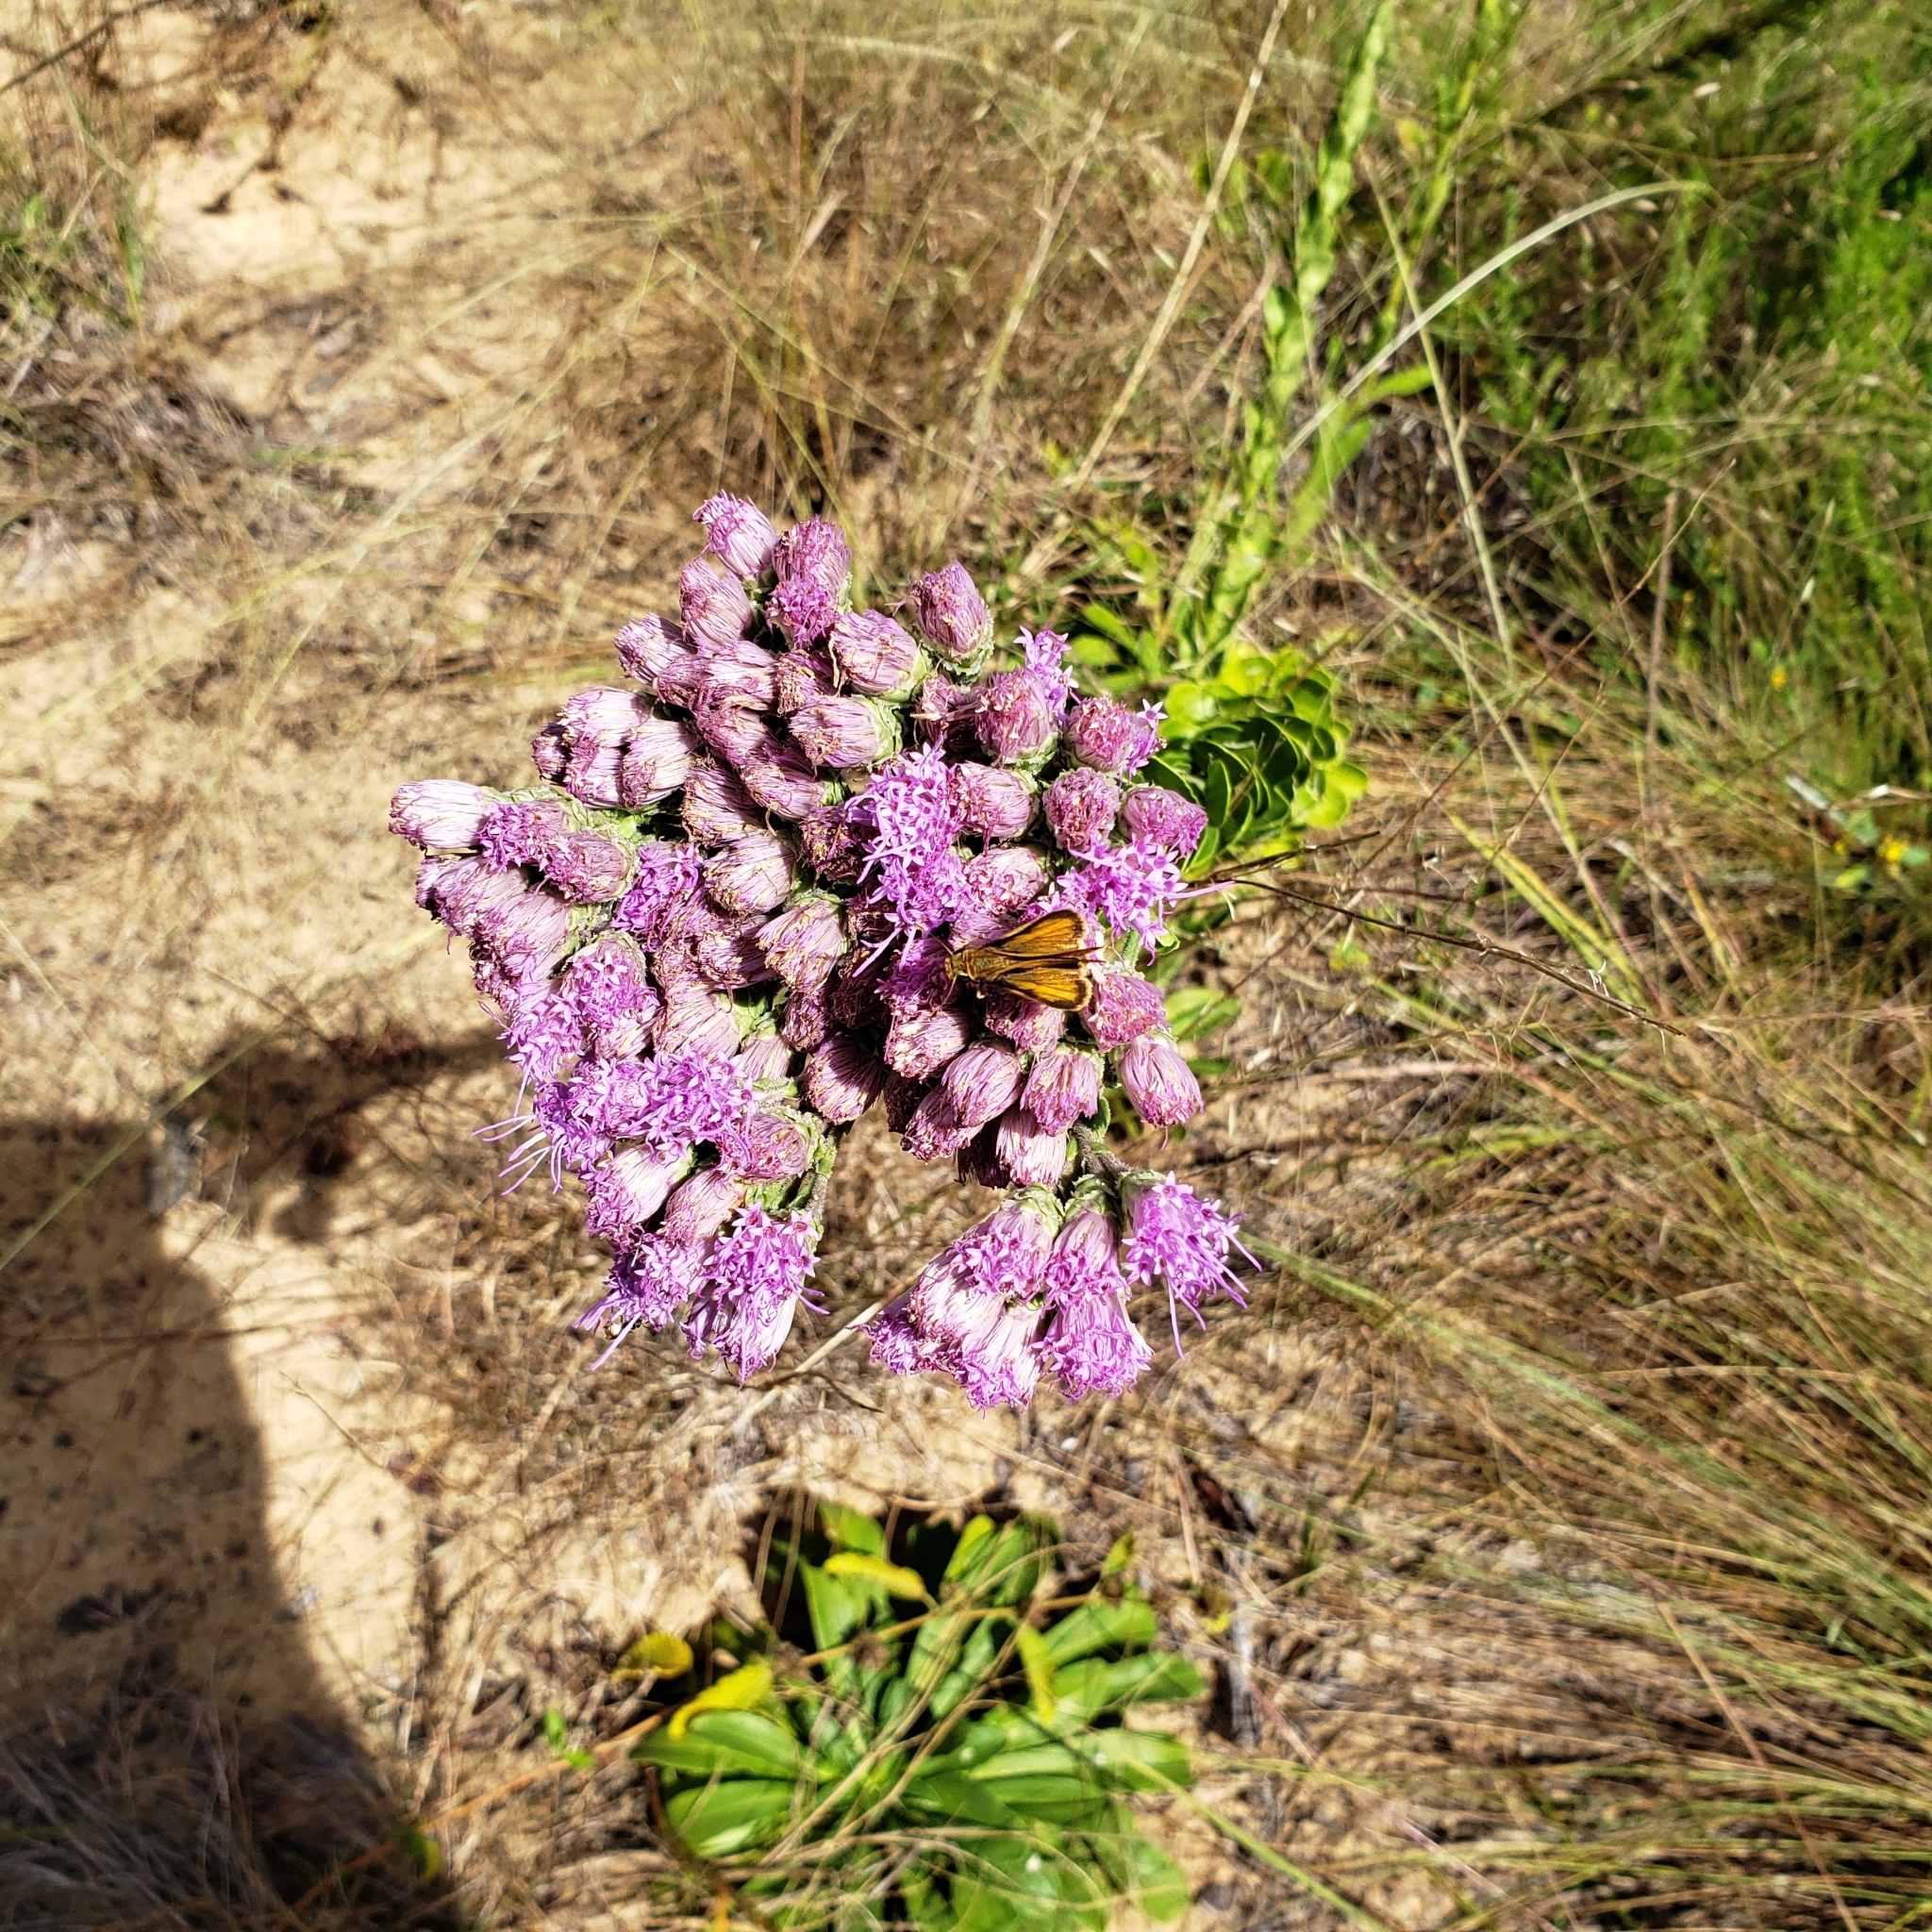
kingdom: Animalia
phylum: Arthropoda
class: Insecta
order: Lepidoptera
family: Hesperiidae
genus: Polites
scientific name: Polites vibex
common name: Whirlabout
